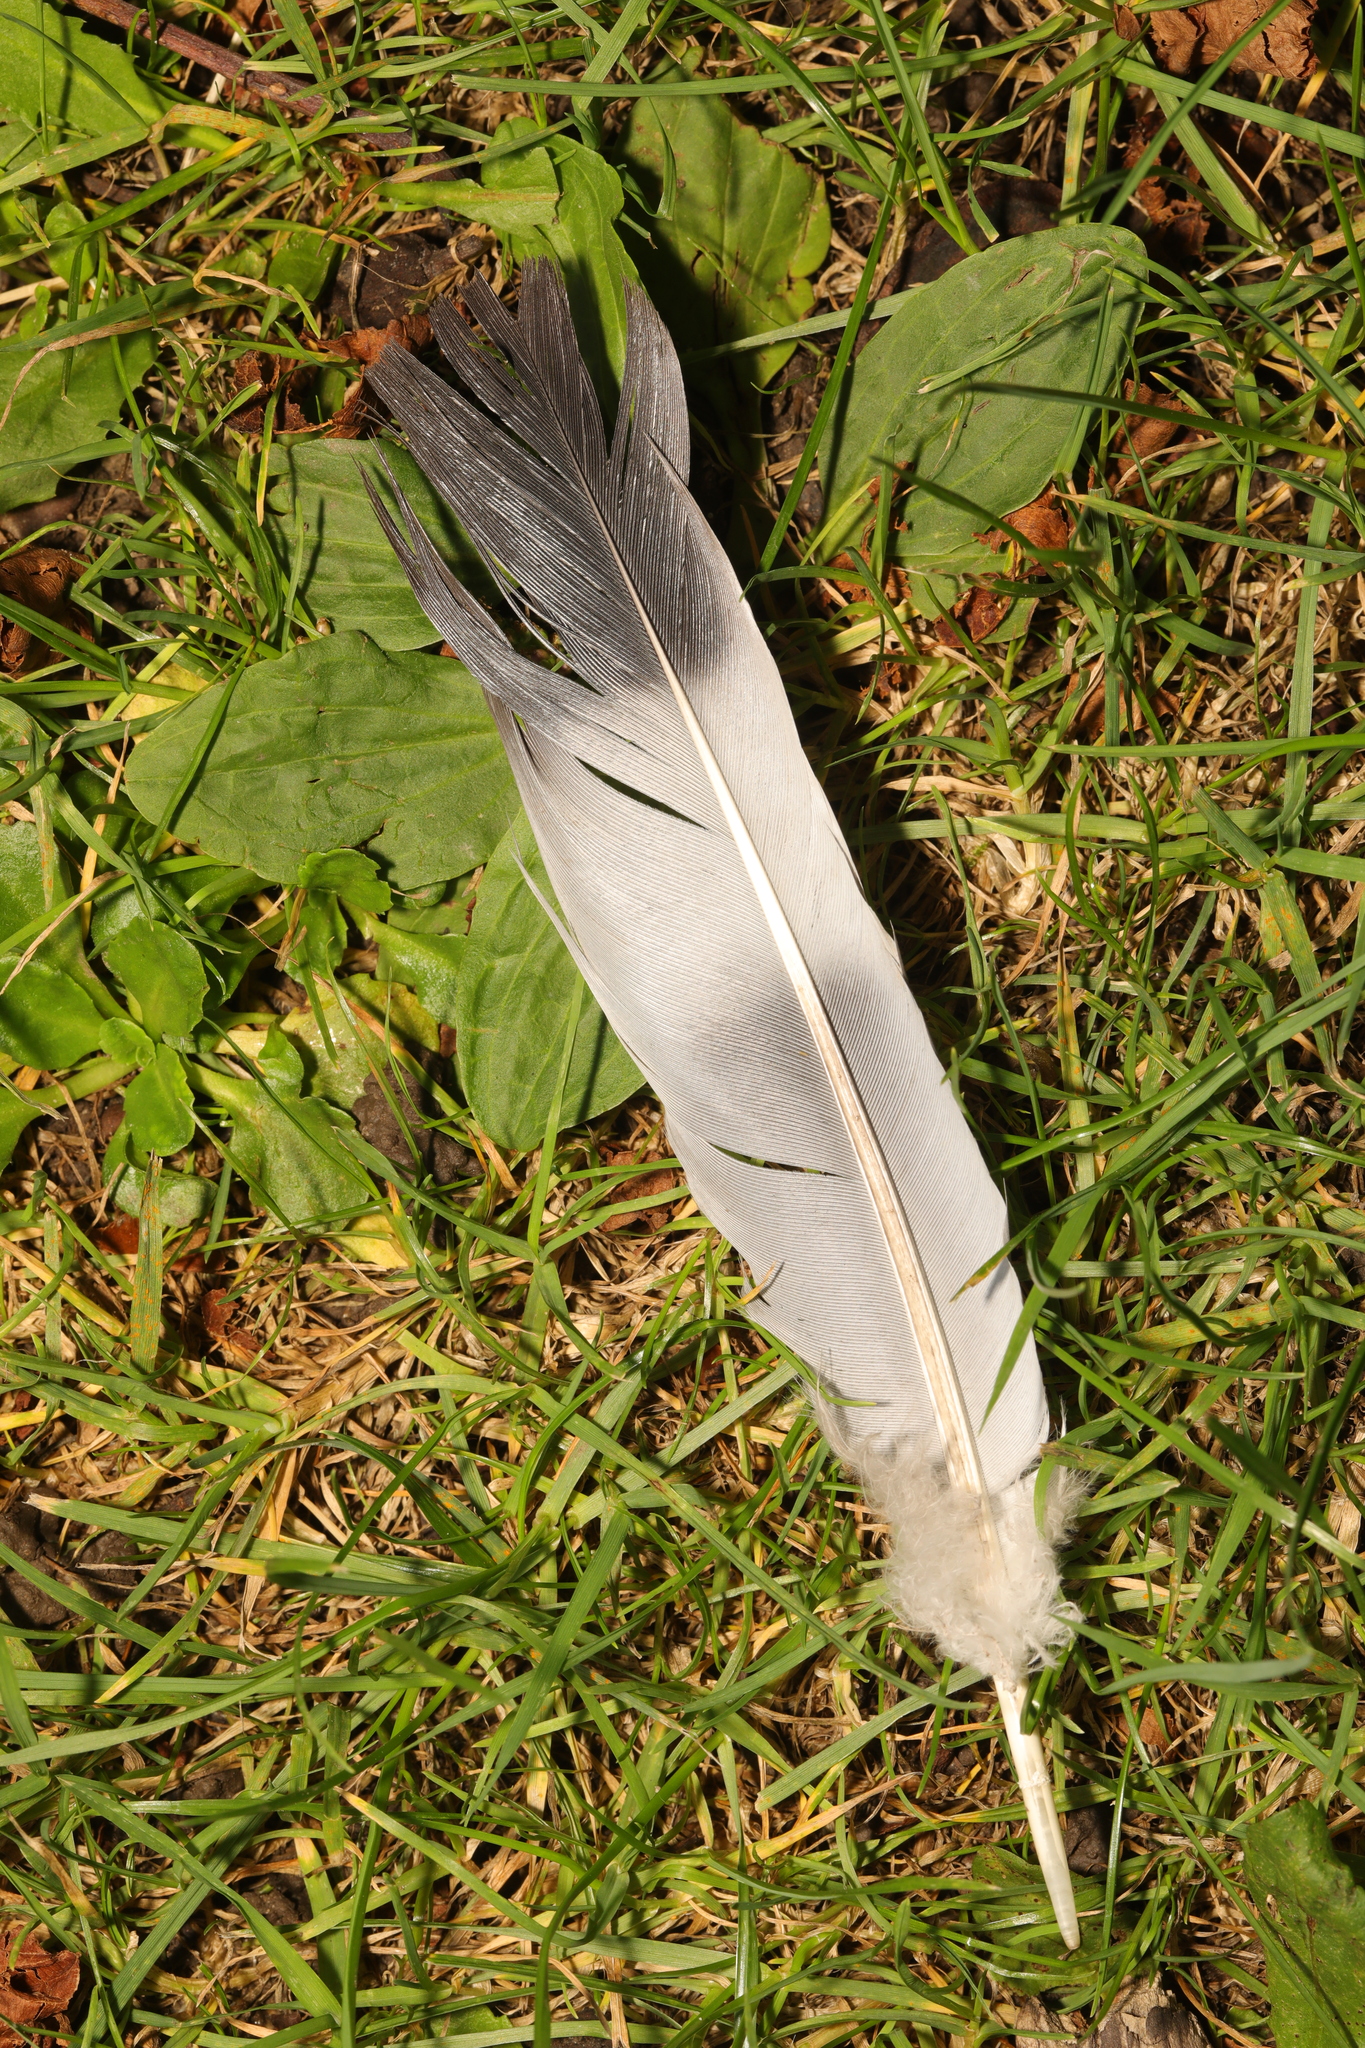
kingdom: Animalia
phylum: Chordata
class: Aves
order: Columbiformes
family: Columbidae
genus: Columba
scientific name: Columba palumbus
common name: Common wood pigeon
